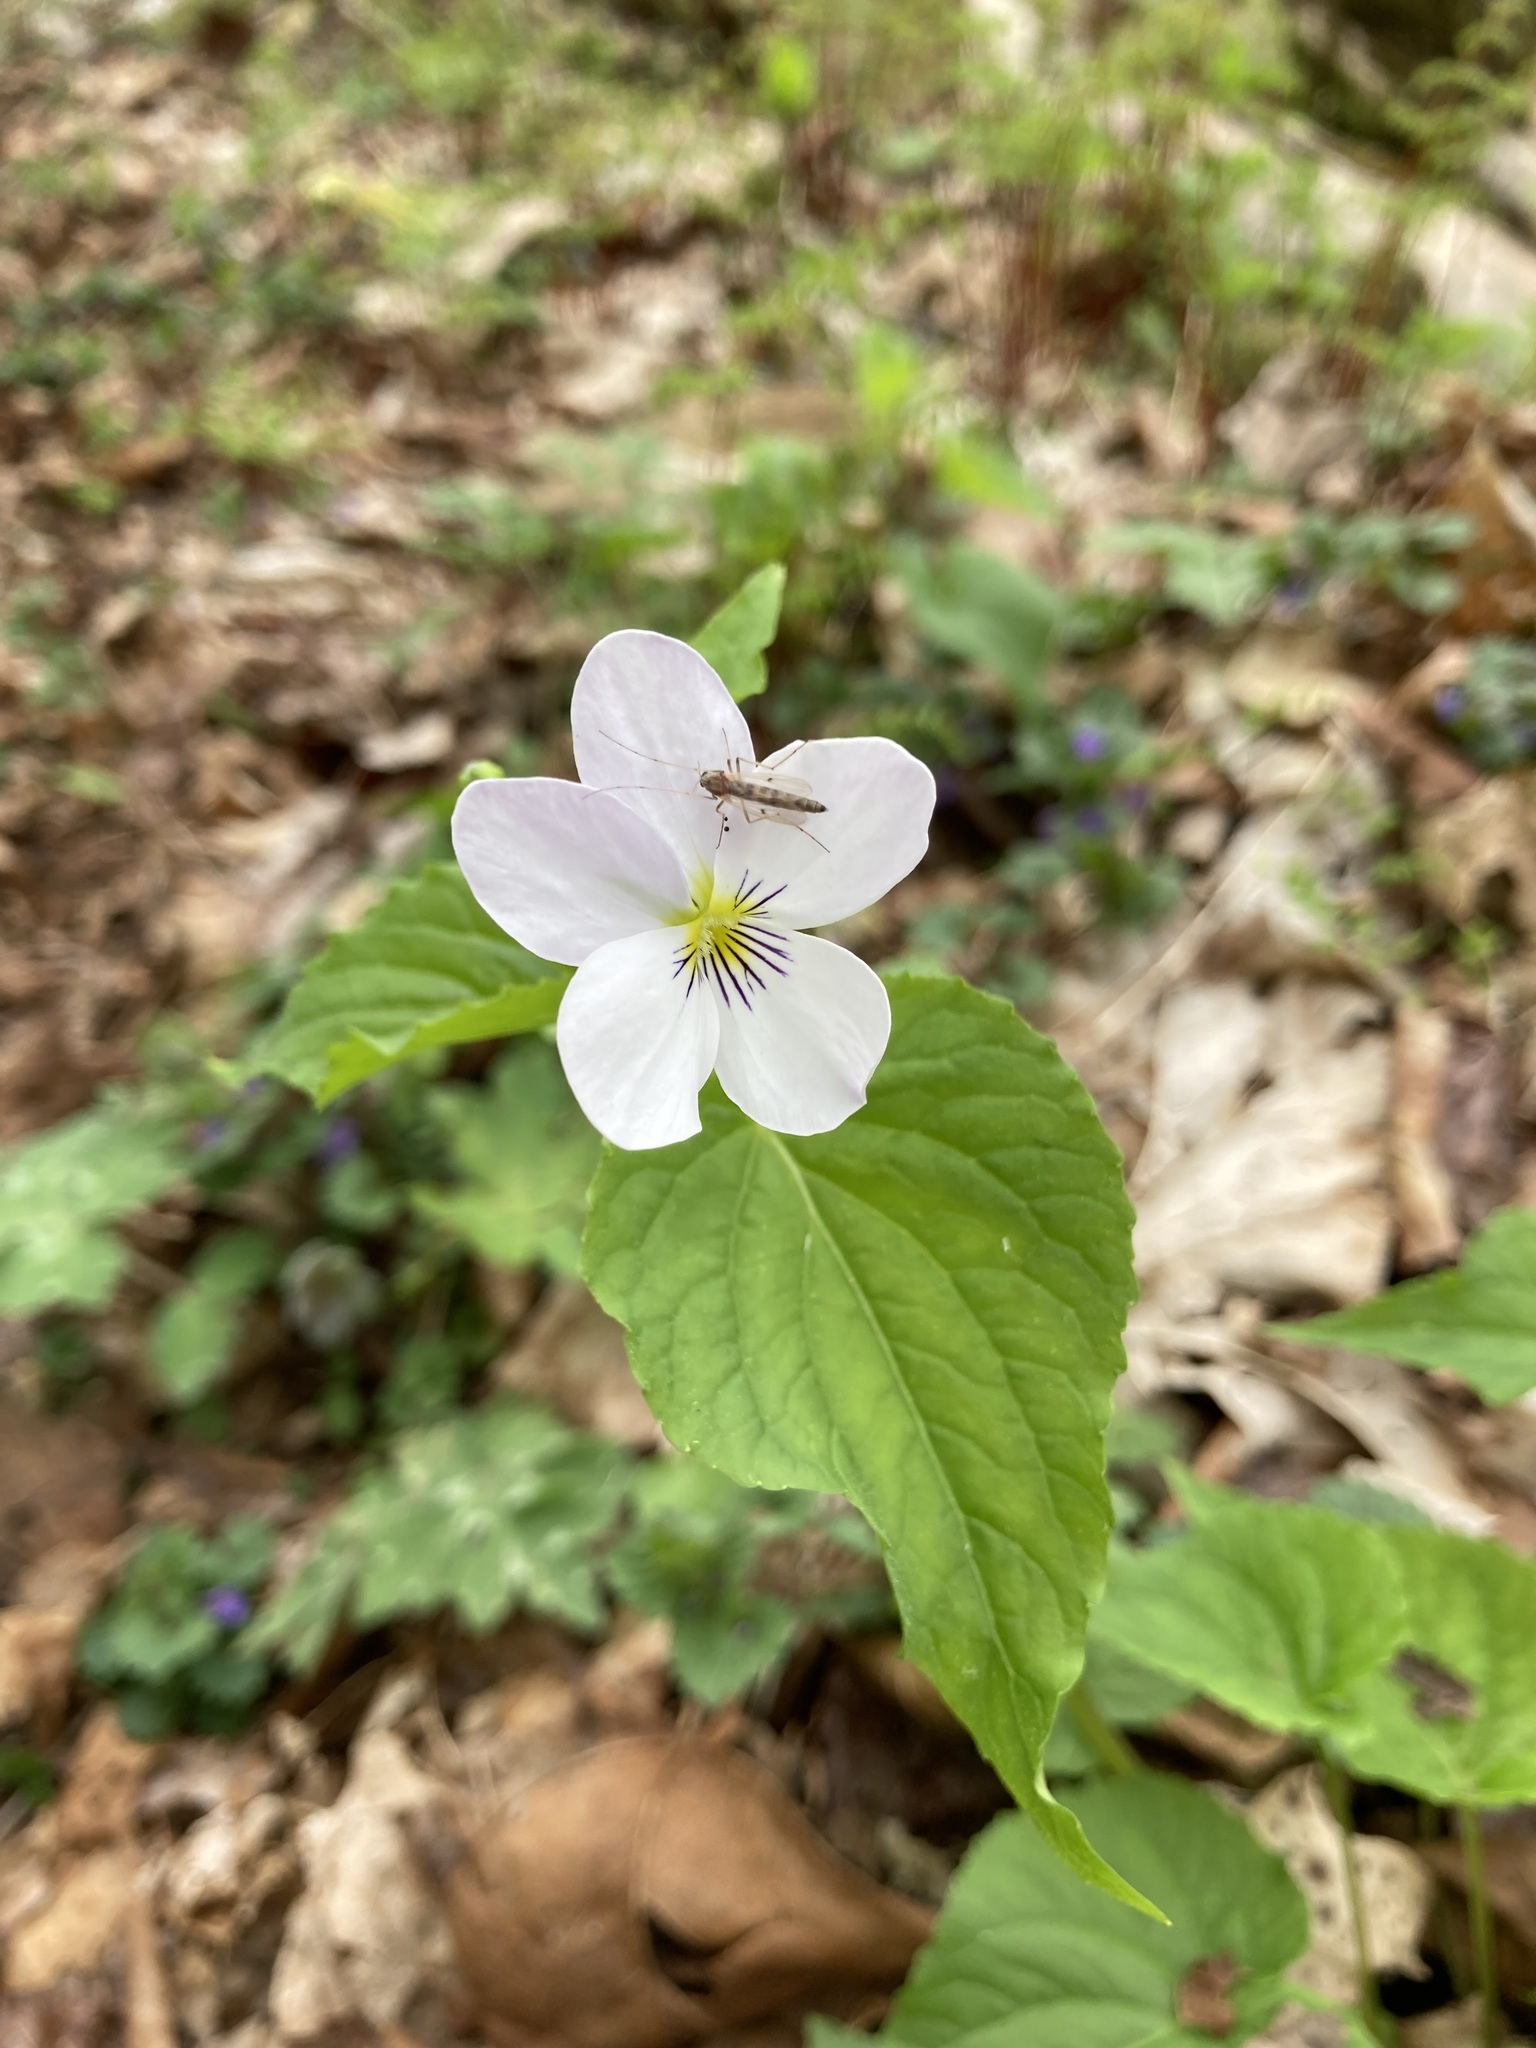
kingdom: Plantae
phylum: Tracheophyta
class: Magnoliopsida
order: Malpighiales
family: Violaceae
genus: Viola
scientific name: Viola canadensis
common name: Canada violet
